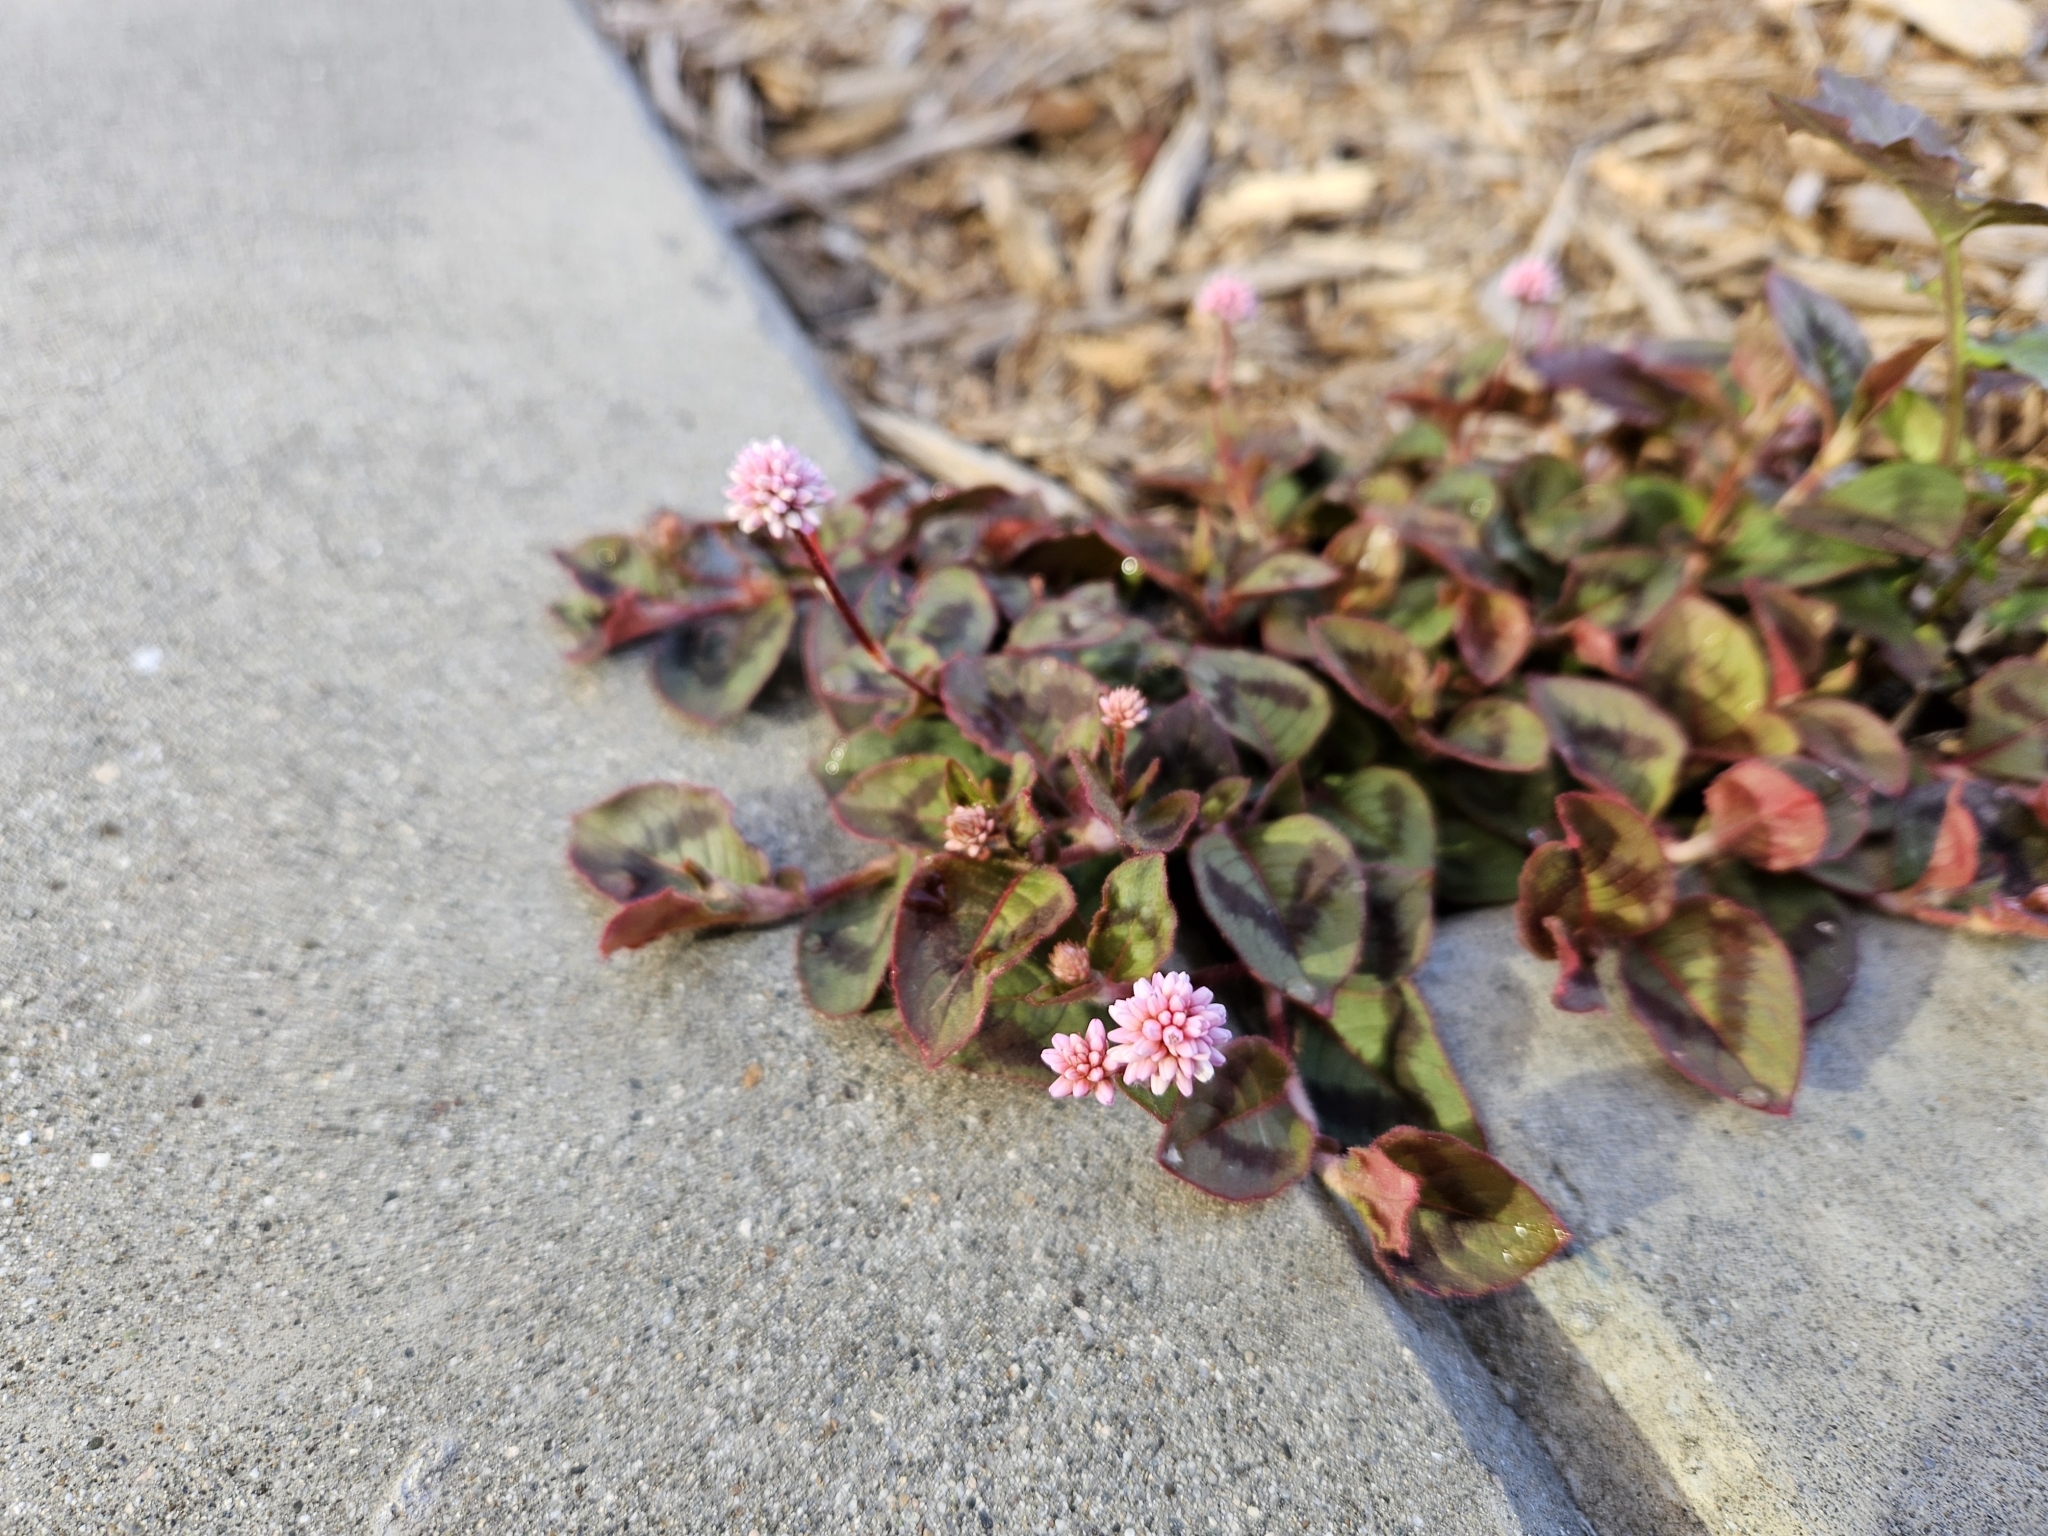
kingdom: Plantae
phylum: Tracheophyta
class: Magnoliopsida
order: Caryophyllales
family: Polygonaceae
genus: Persicaria
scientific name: Persicaria capitata
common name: Pinkhead smartweed
